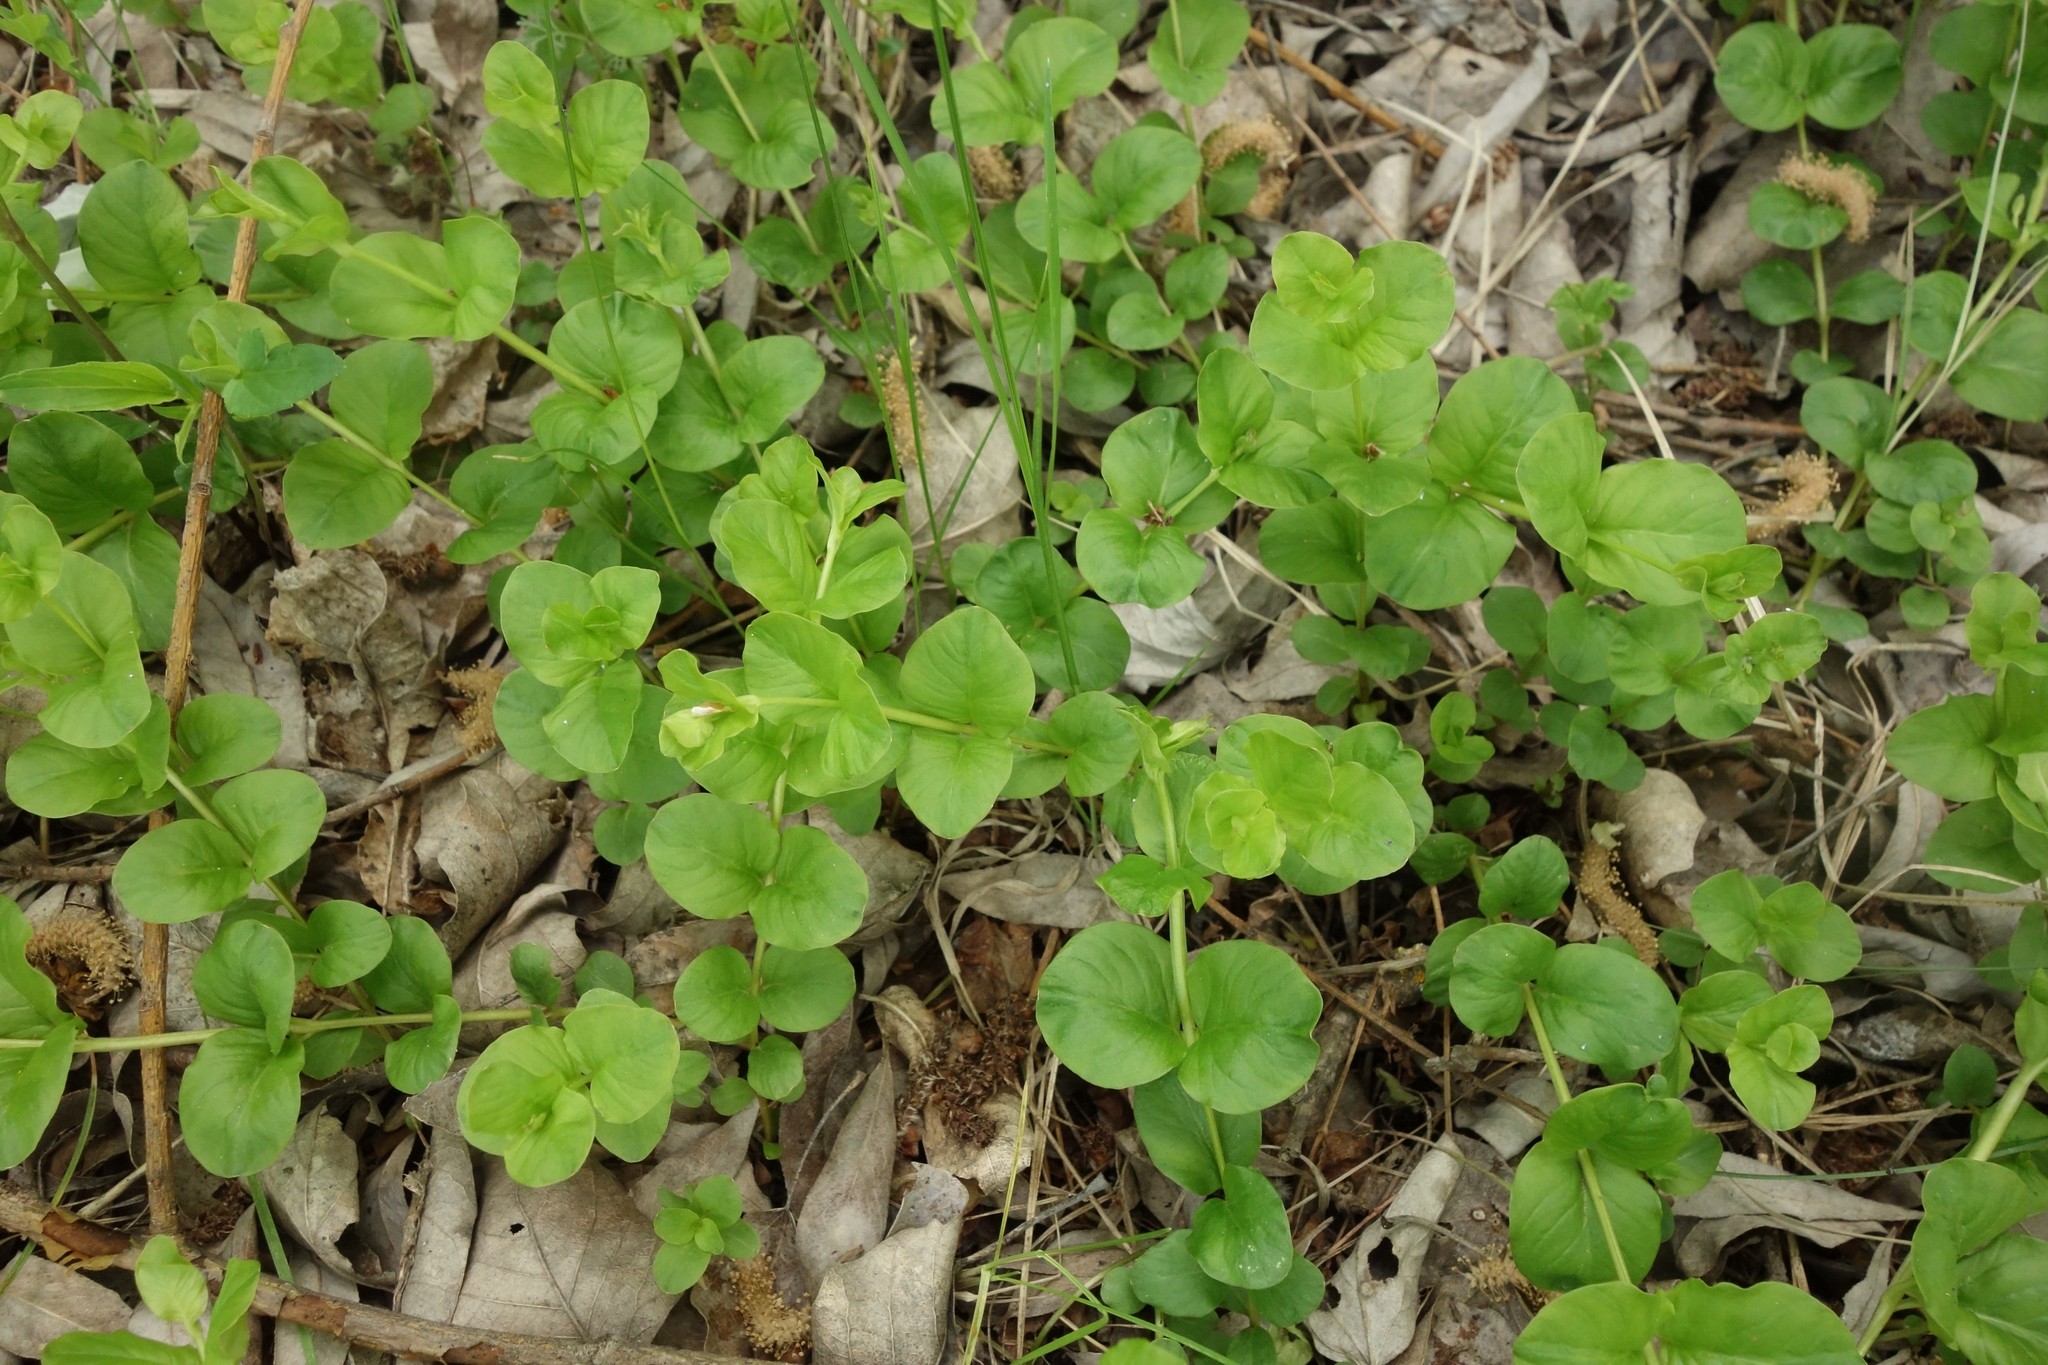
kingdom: Plantae
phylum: Tracheophyta
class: Magnoliopsida
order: Ericales
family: Primulaceae
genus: Lysimachia
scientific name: Lysimachia nummularia
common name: Moneywort
